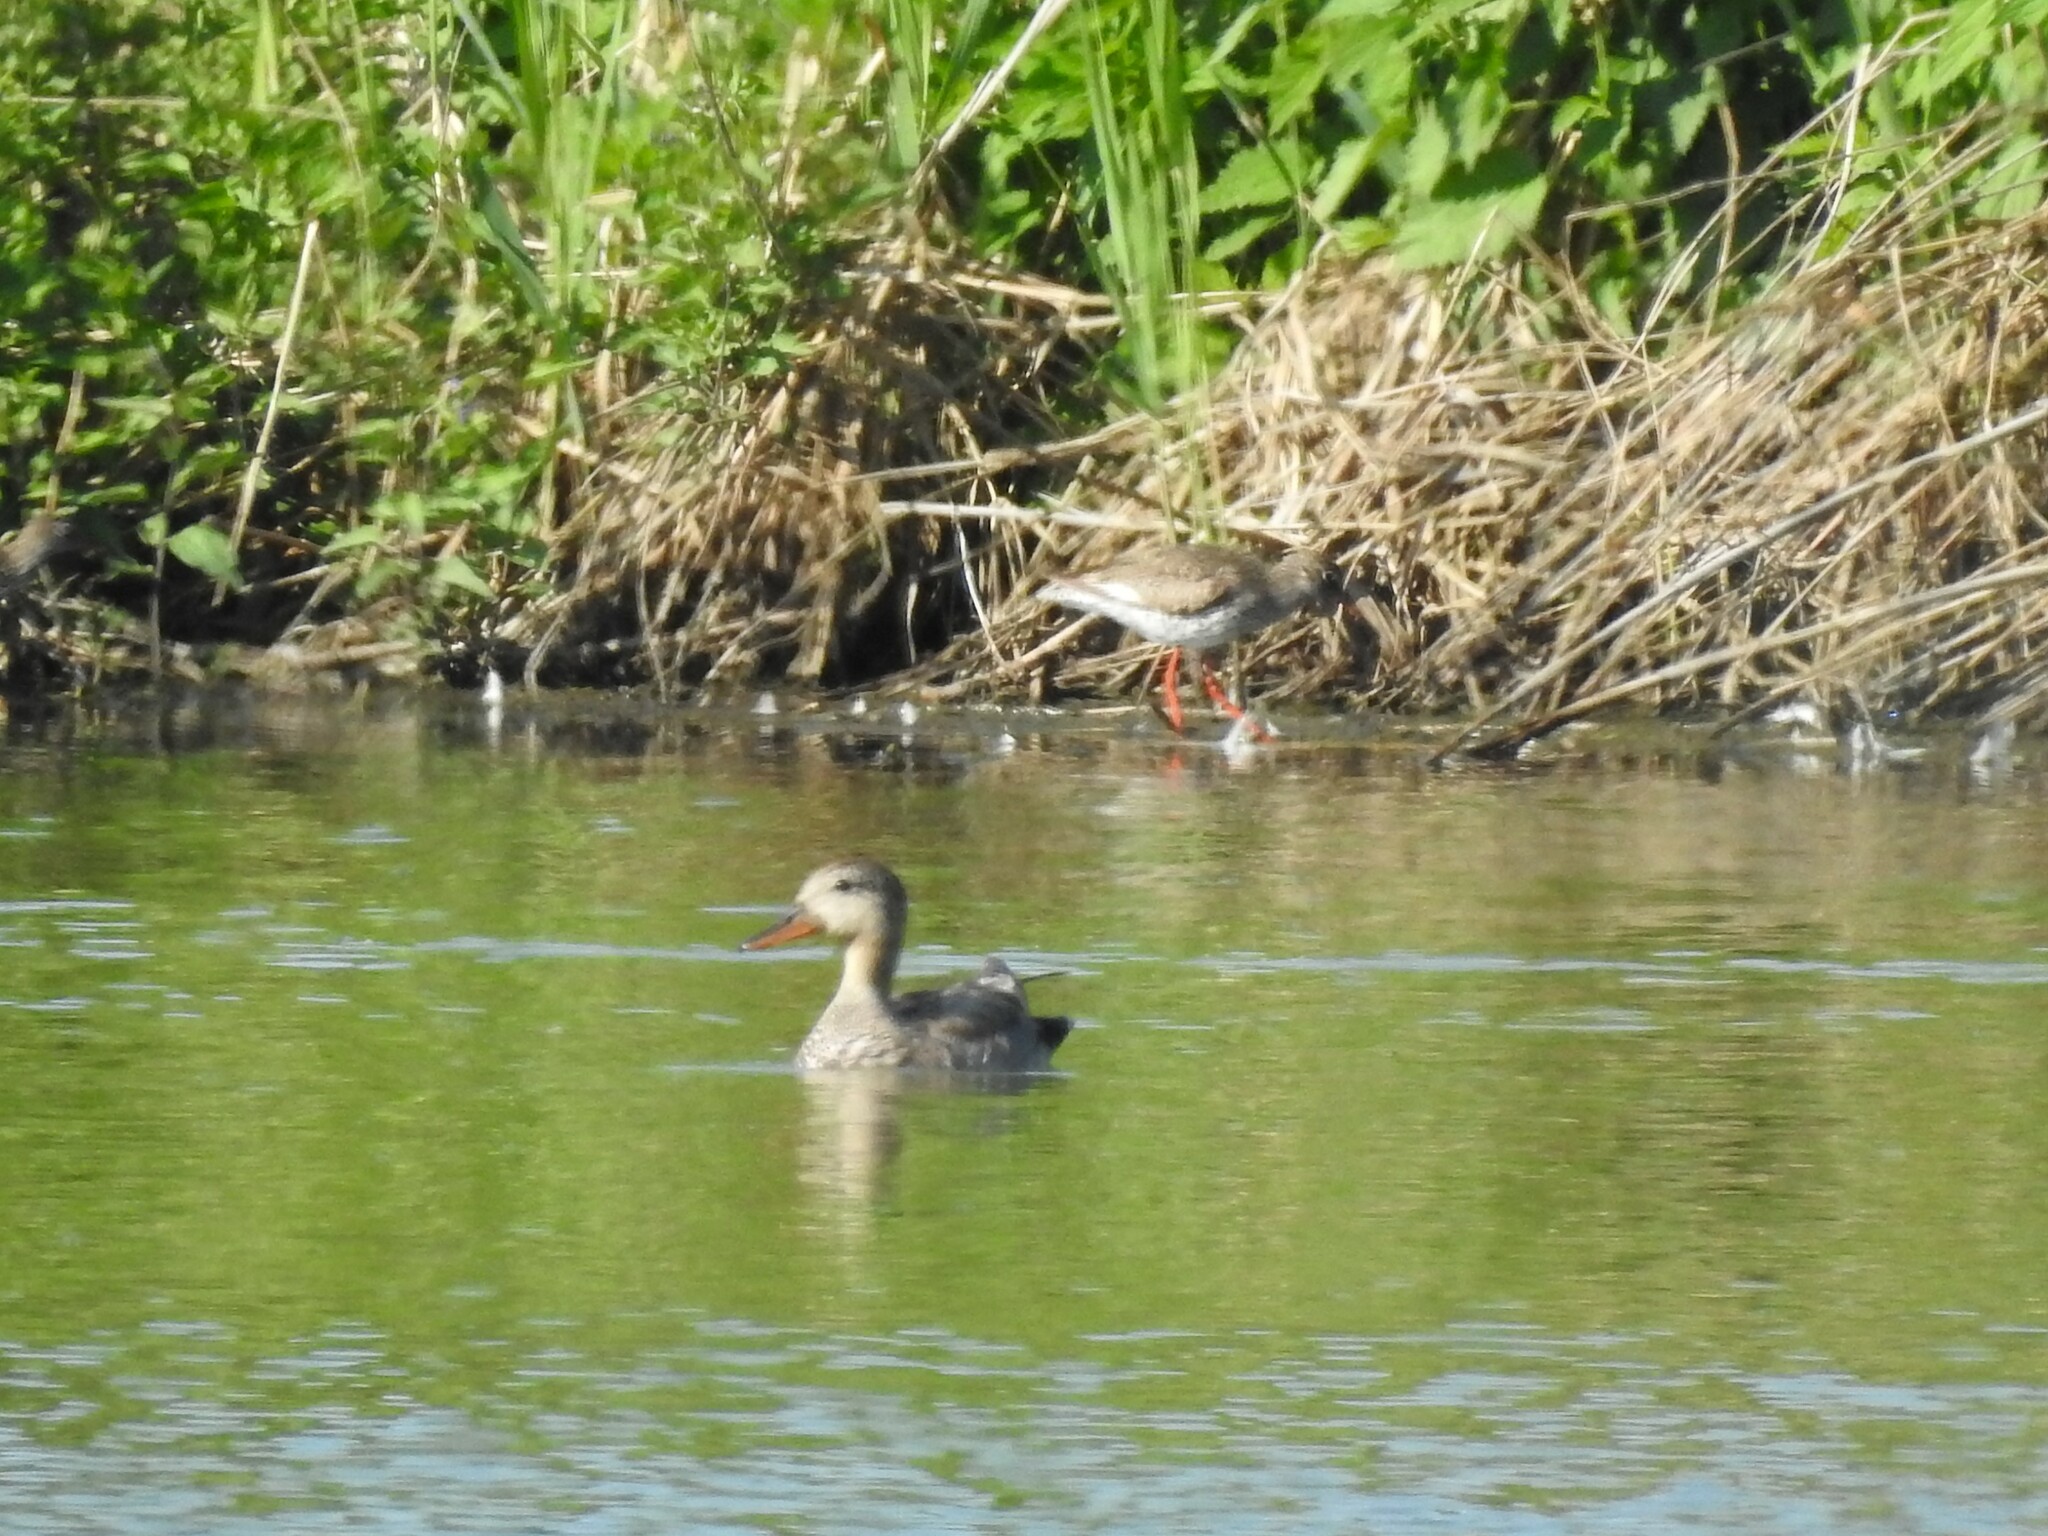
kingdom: Animalia
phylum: Chordata
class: Aves
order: Anseriformes
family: Anatidae
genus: Mareca
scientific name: Mareca strepera
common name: Gadwall
